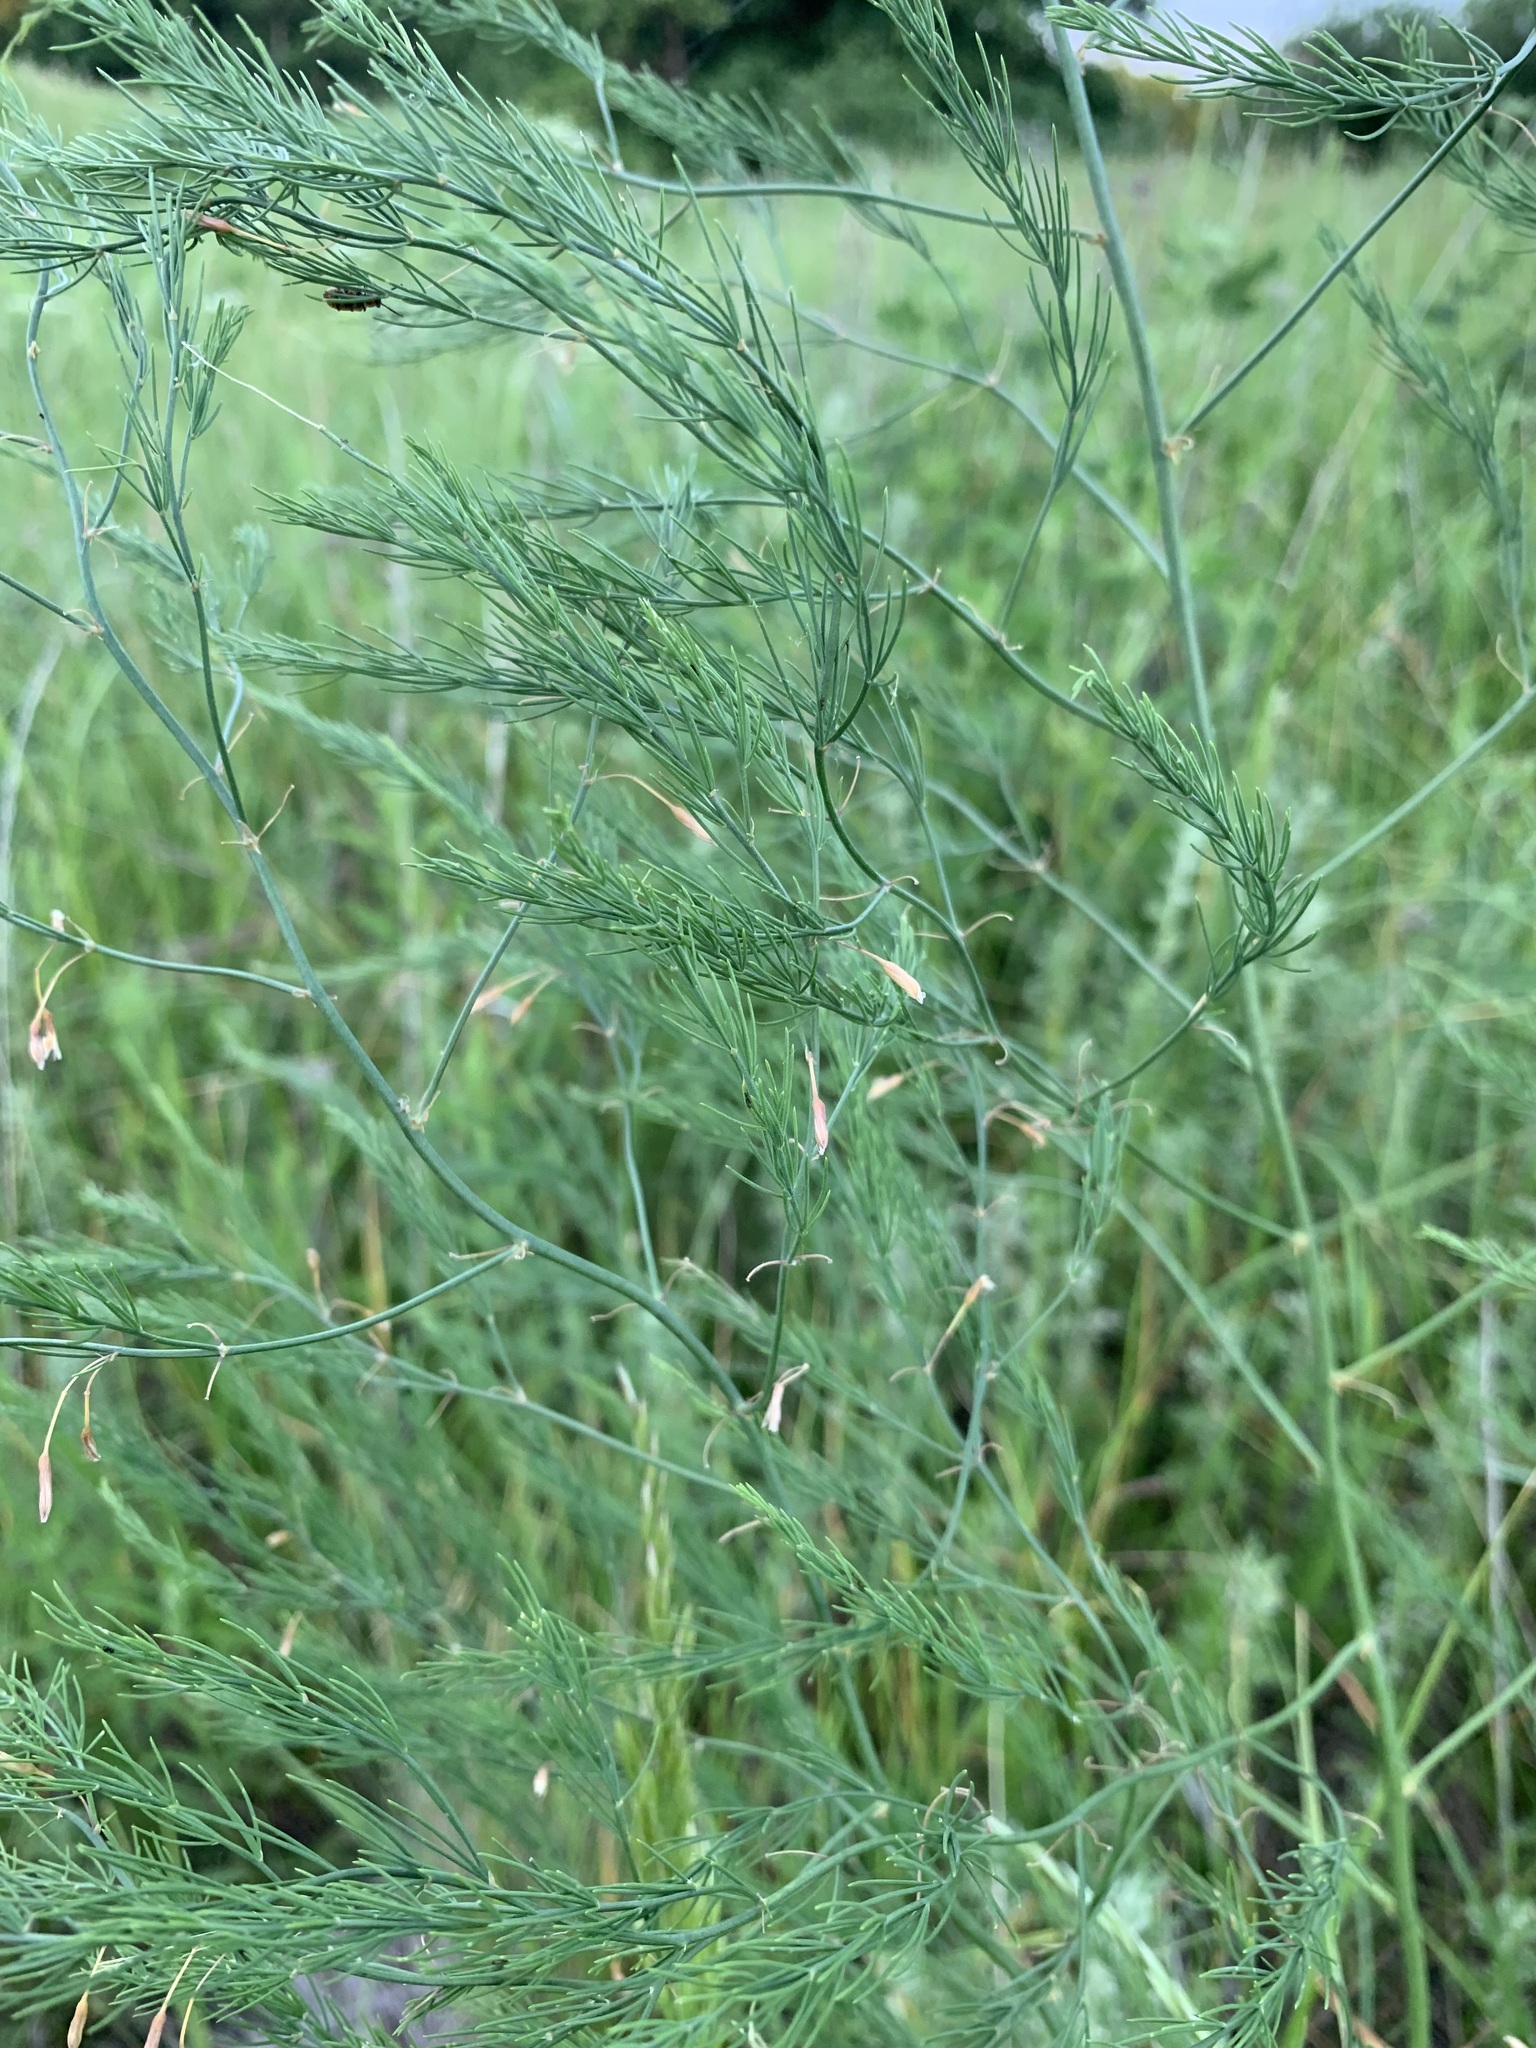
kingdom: Plantae
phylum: Tracheophyta
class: Liliopsida
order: Asparagales
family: Asparagaceae
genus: Asparagus
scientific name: Asparagus officinalis
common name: Garden asparagus
